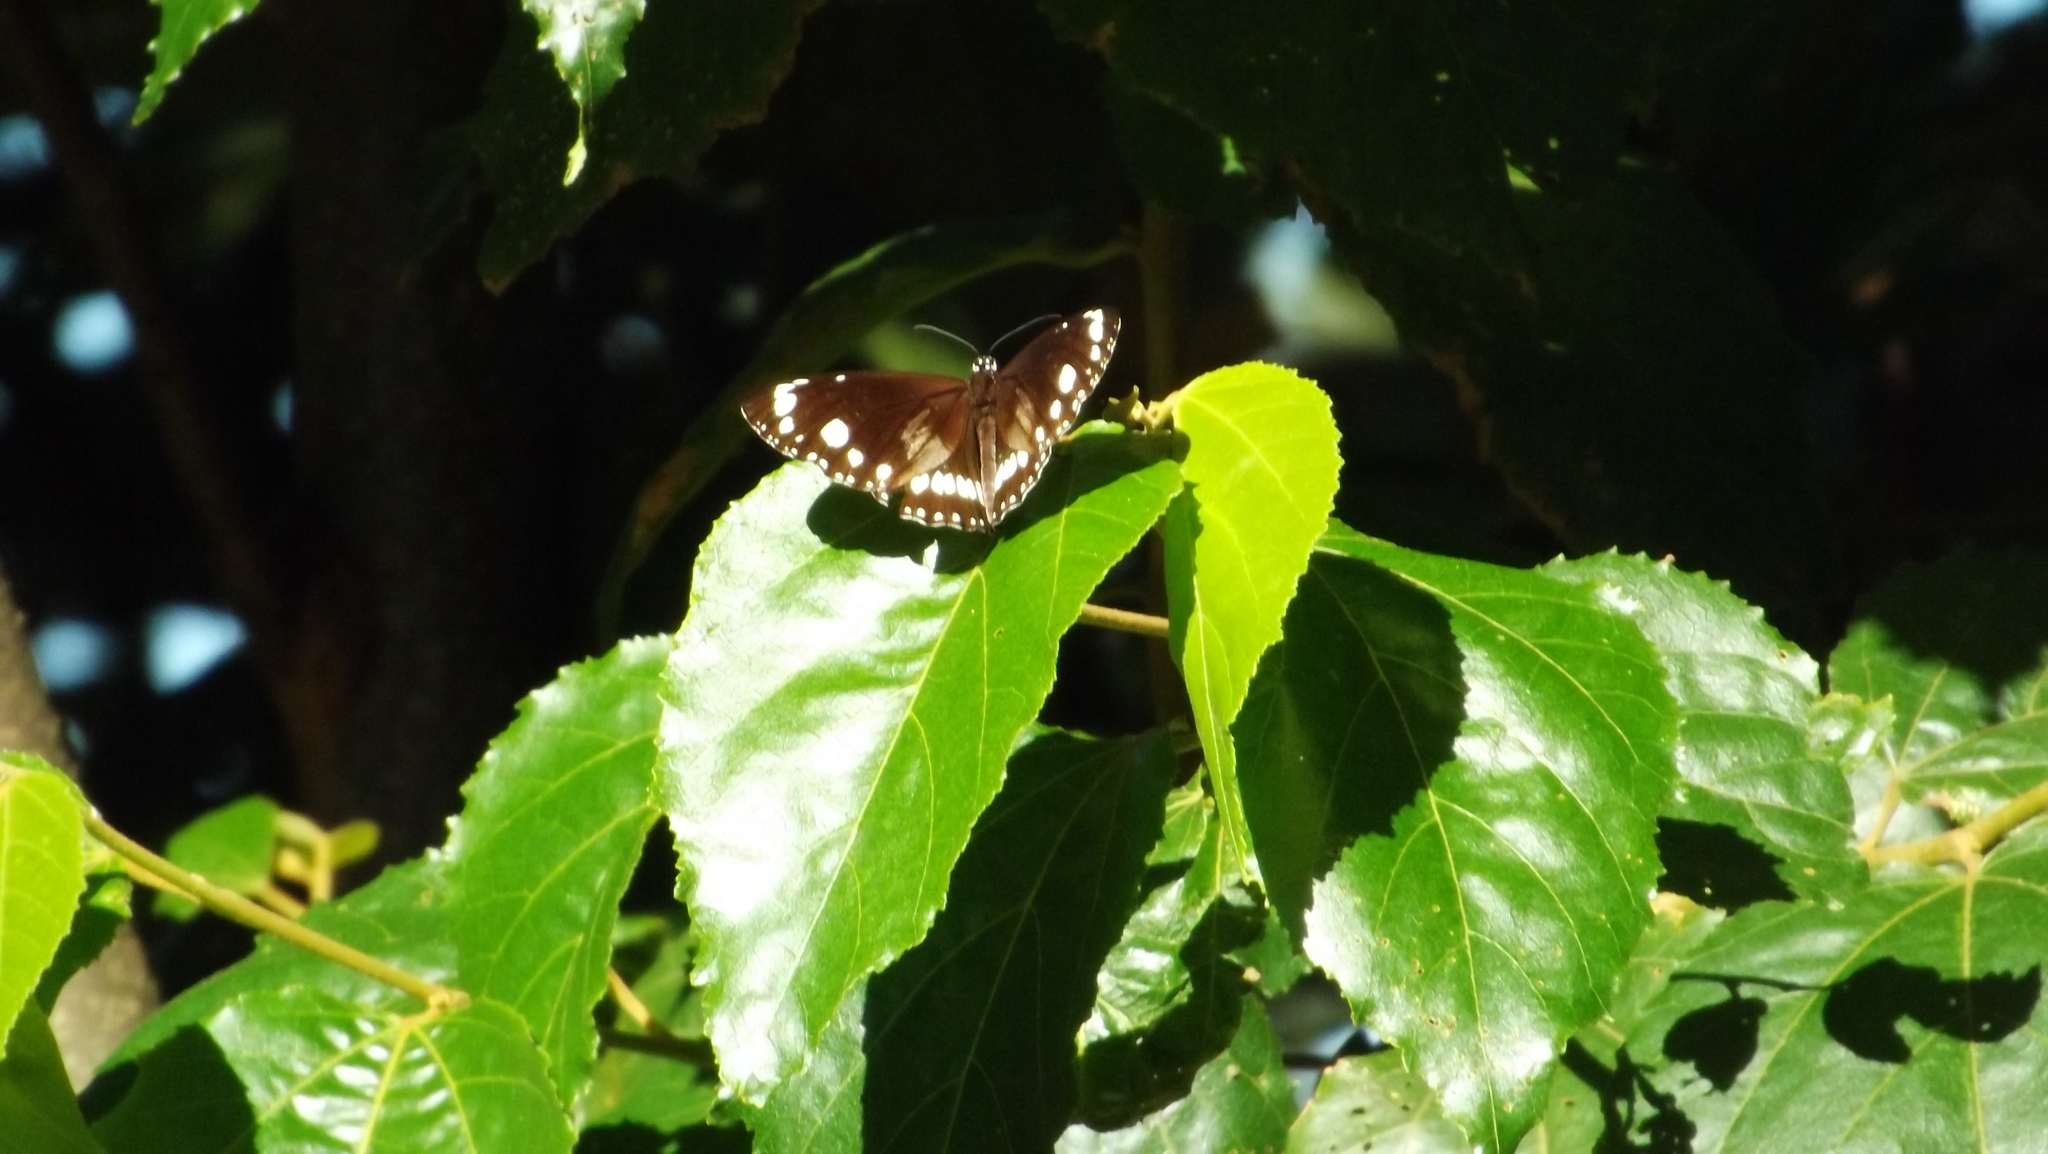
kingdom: Animalia
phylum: Arthropoda
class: Insecta
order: Lepidoptera
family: Nymphalidae
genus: Euploea
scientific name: Euploea core
